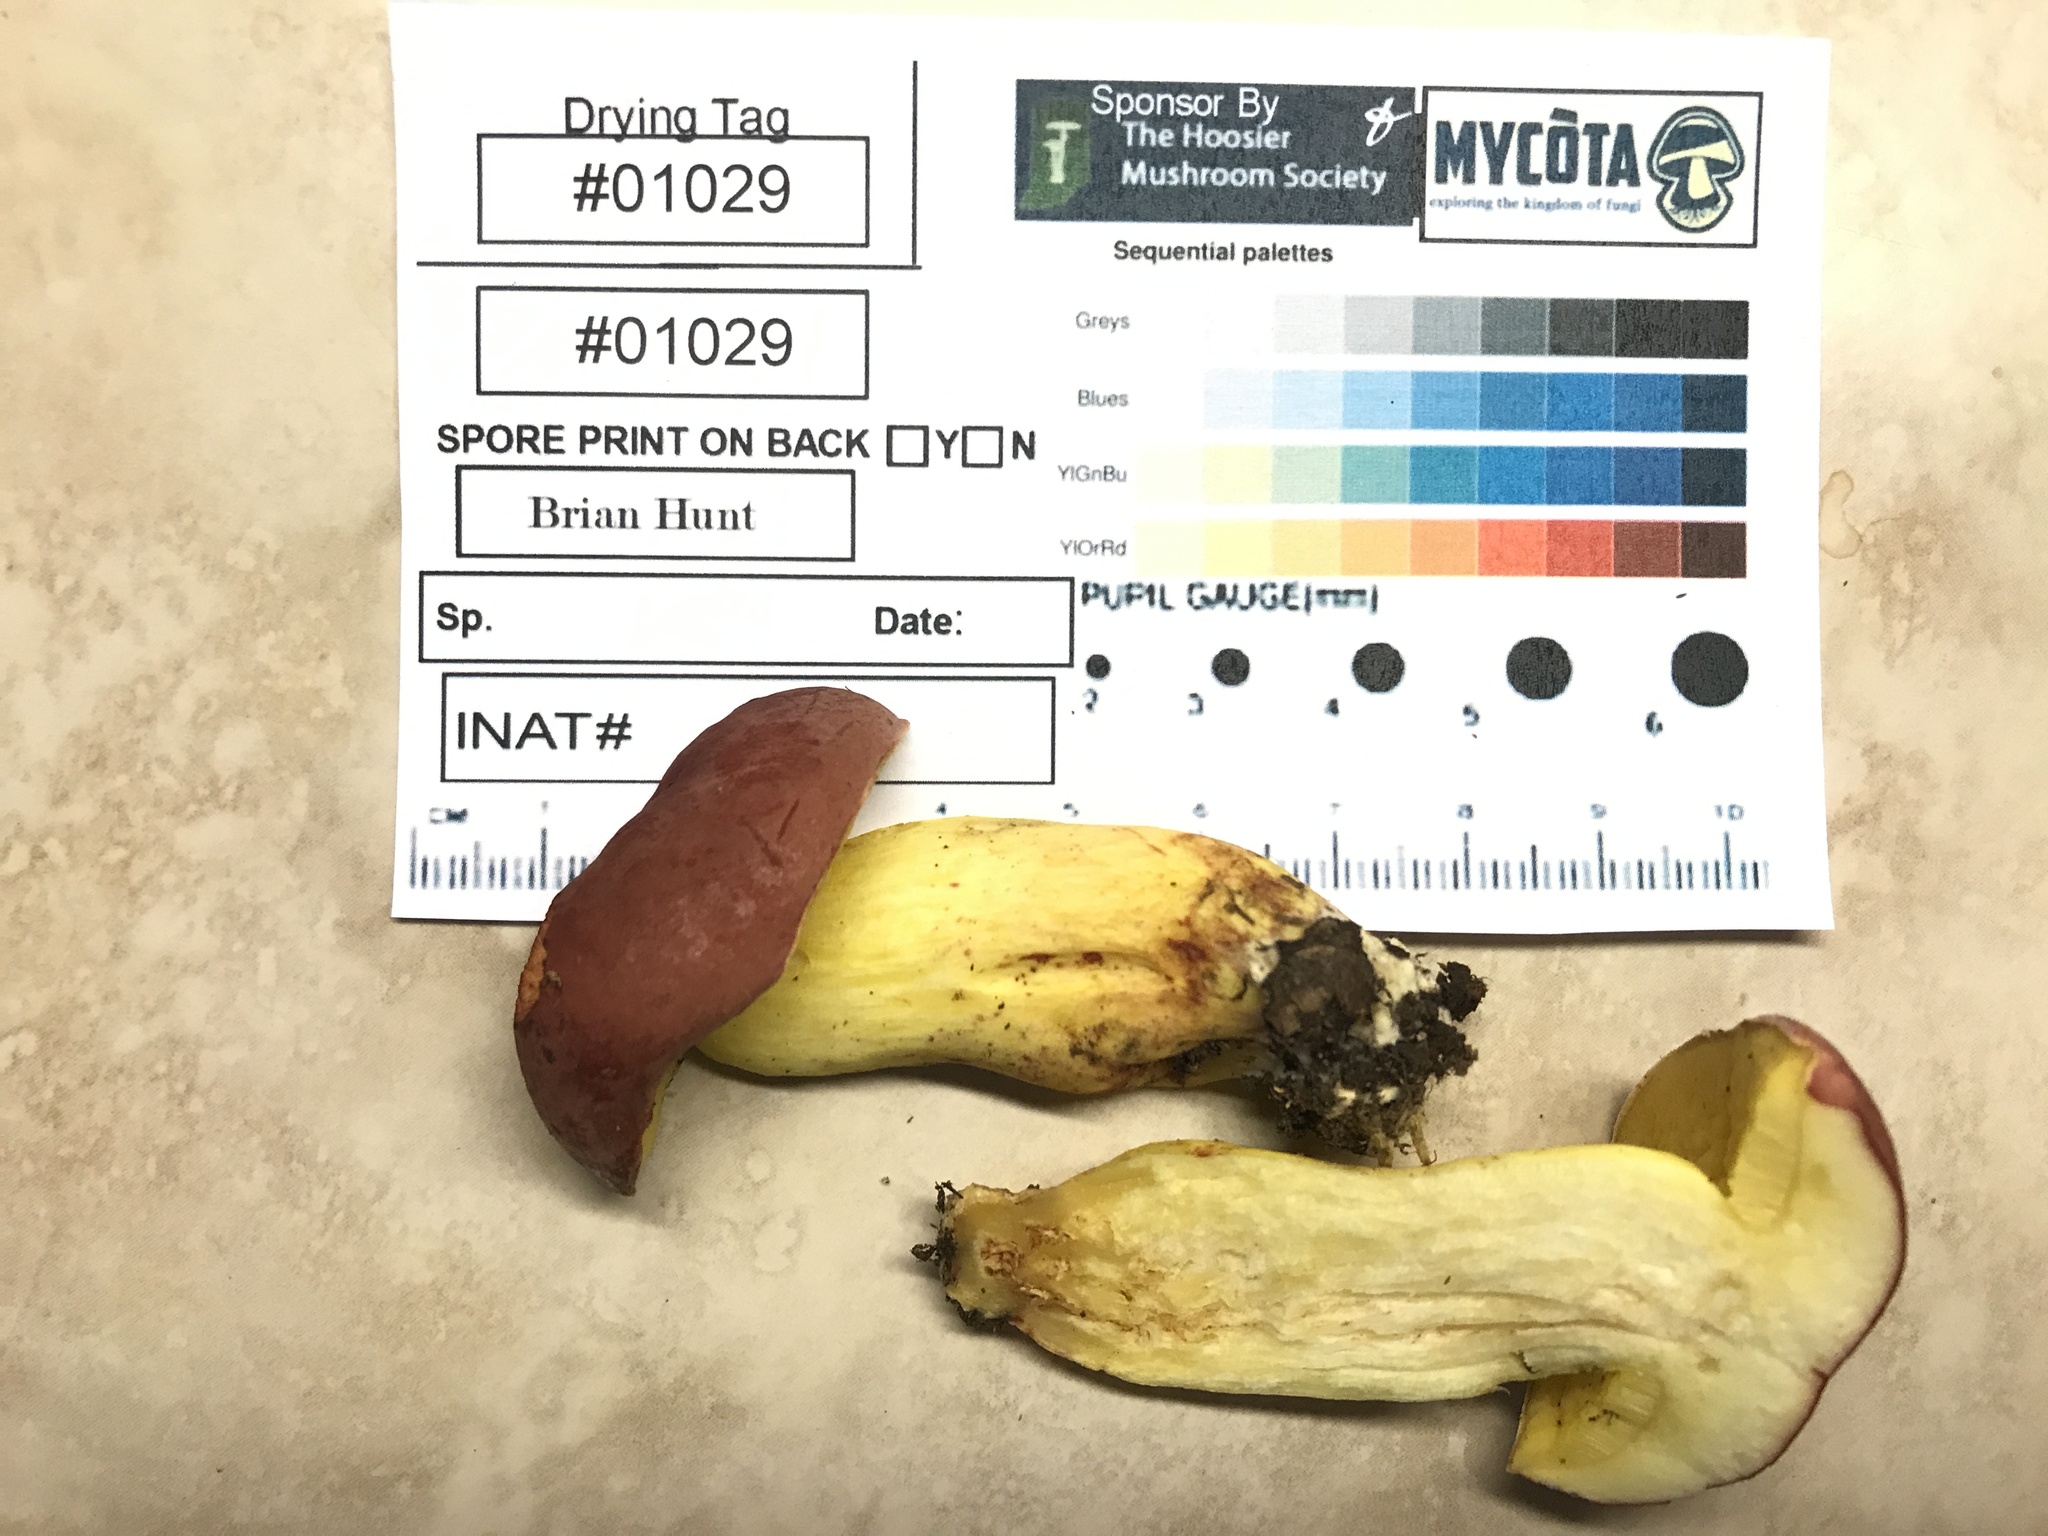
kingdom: Fungi
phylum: Basidiomycota
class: Agaricomycetes
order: Boletales
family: Boletaceae
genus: Boletus
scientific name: Boletus roodyi
